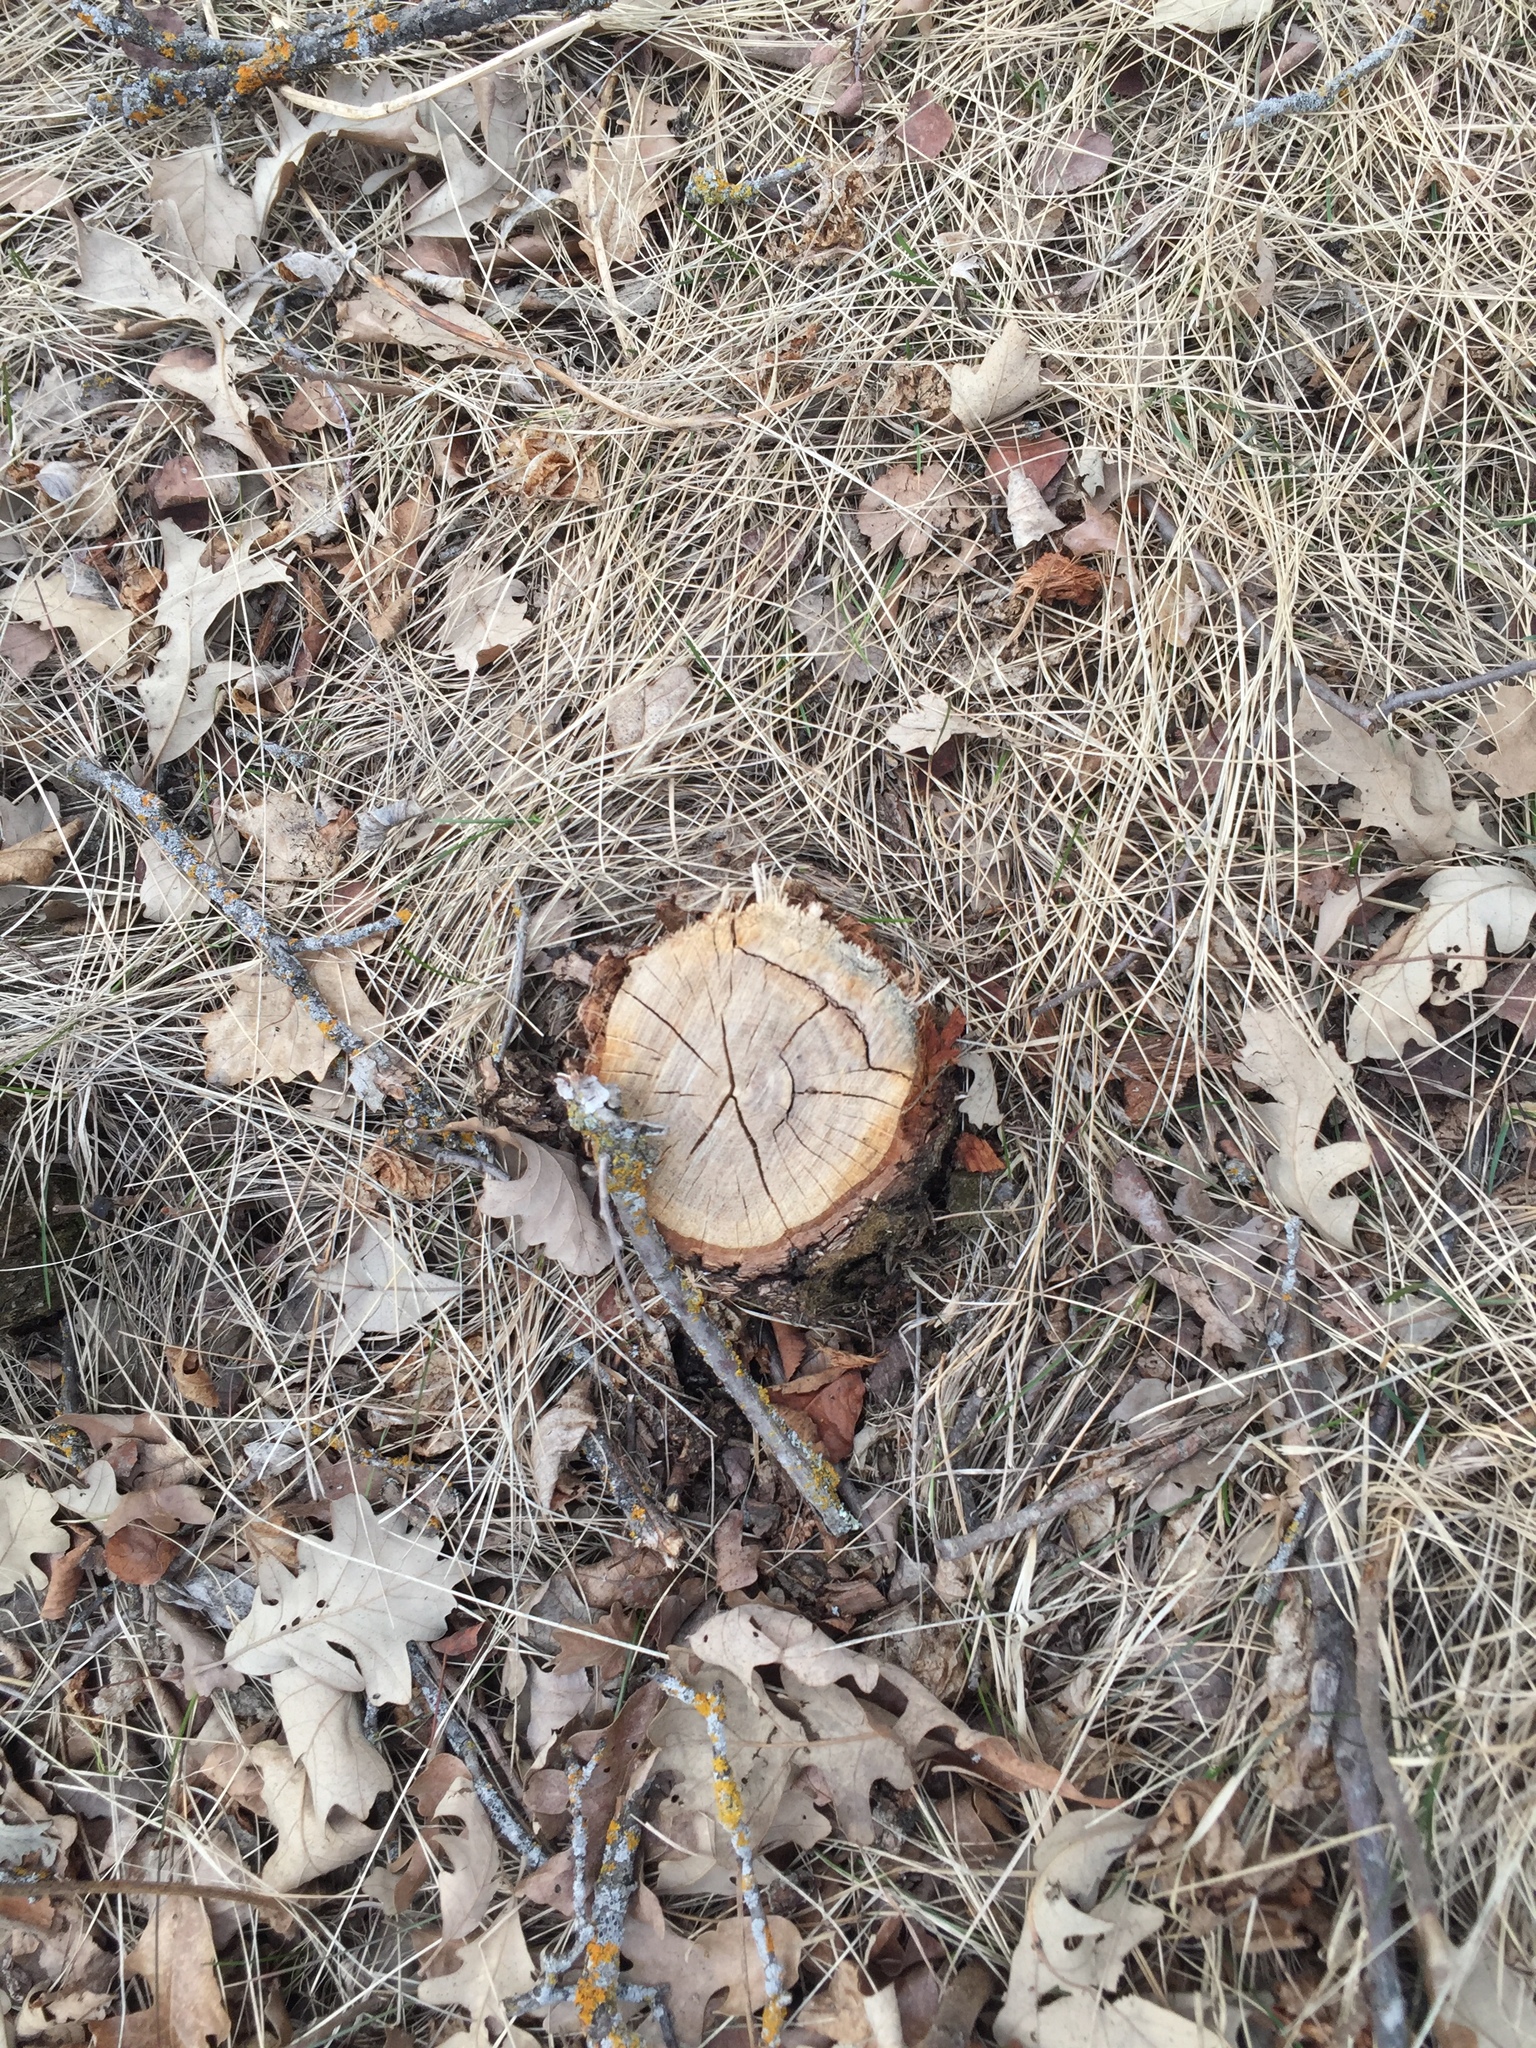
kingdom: Plantae
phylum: Tracheophyta
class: Magnoliopsida
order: Fagales
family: Fagaceae
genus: Quercus
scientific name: Quercus macrocarpa
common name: Bur oak
